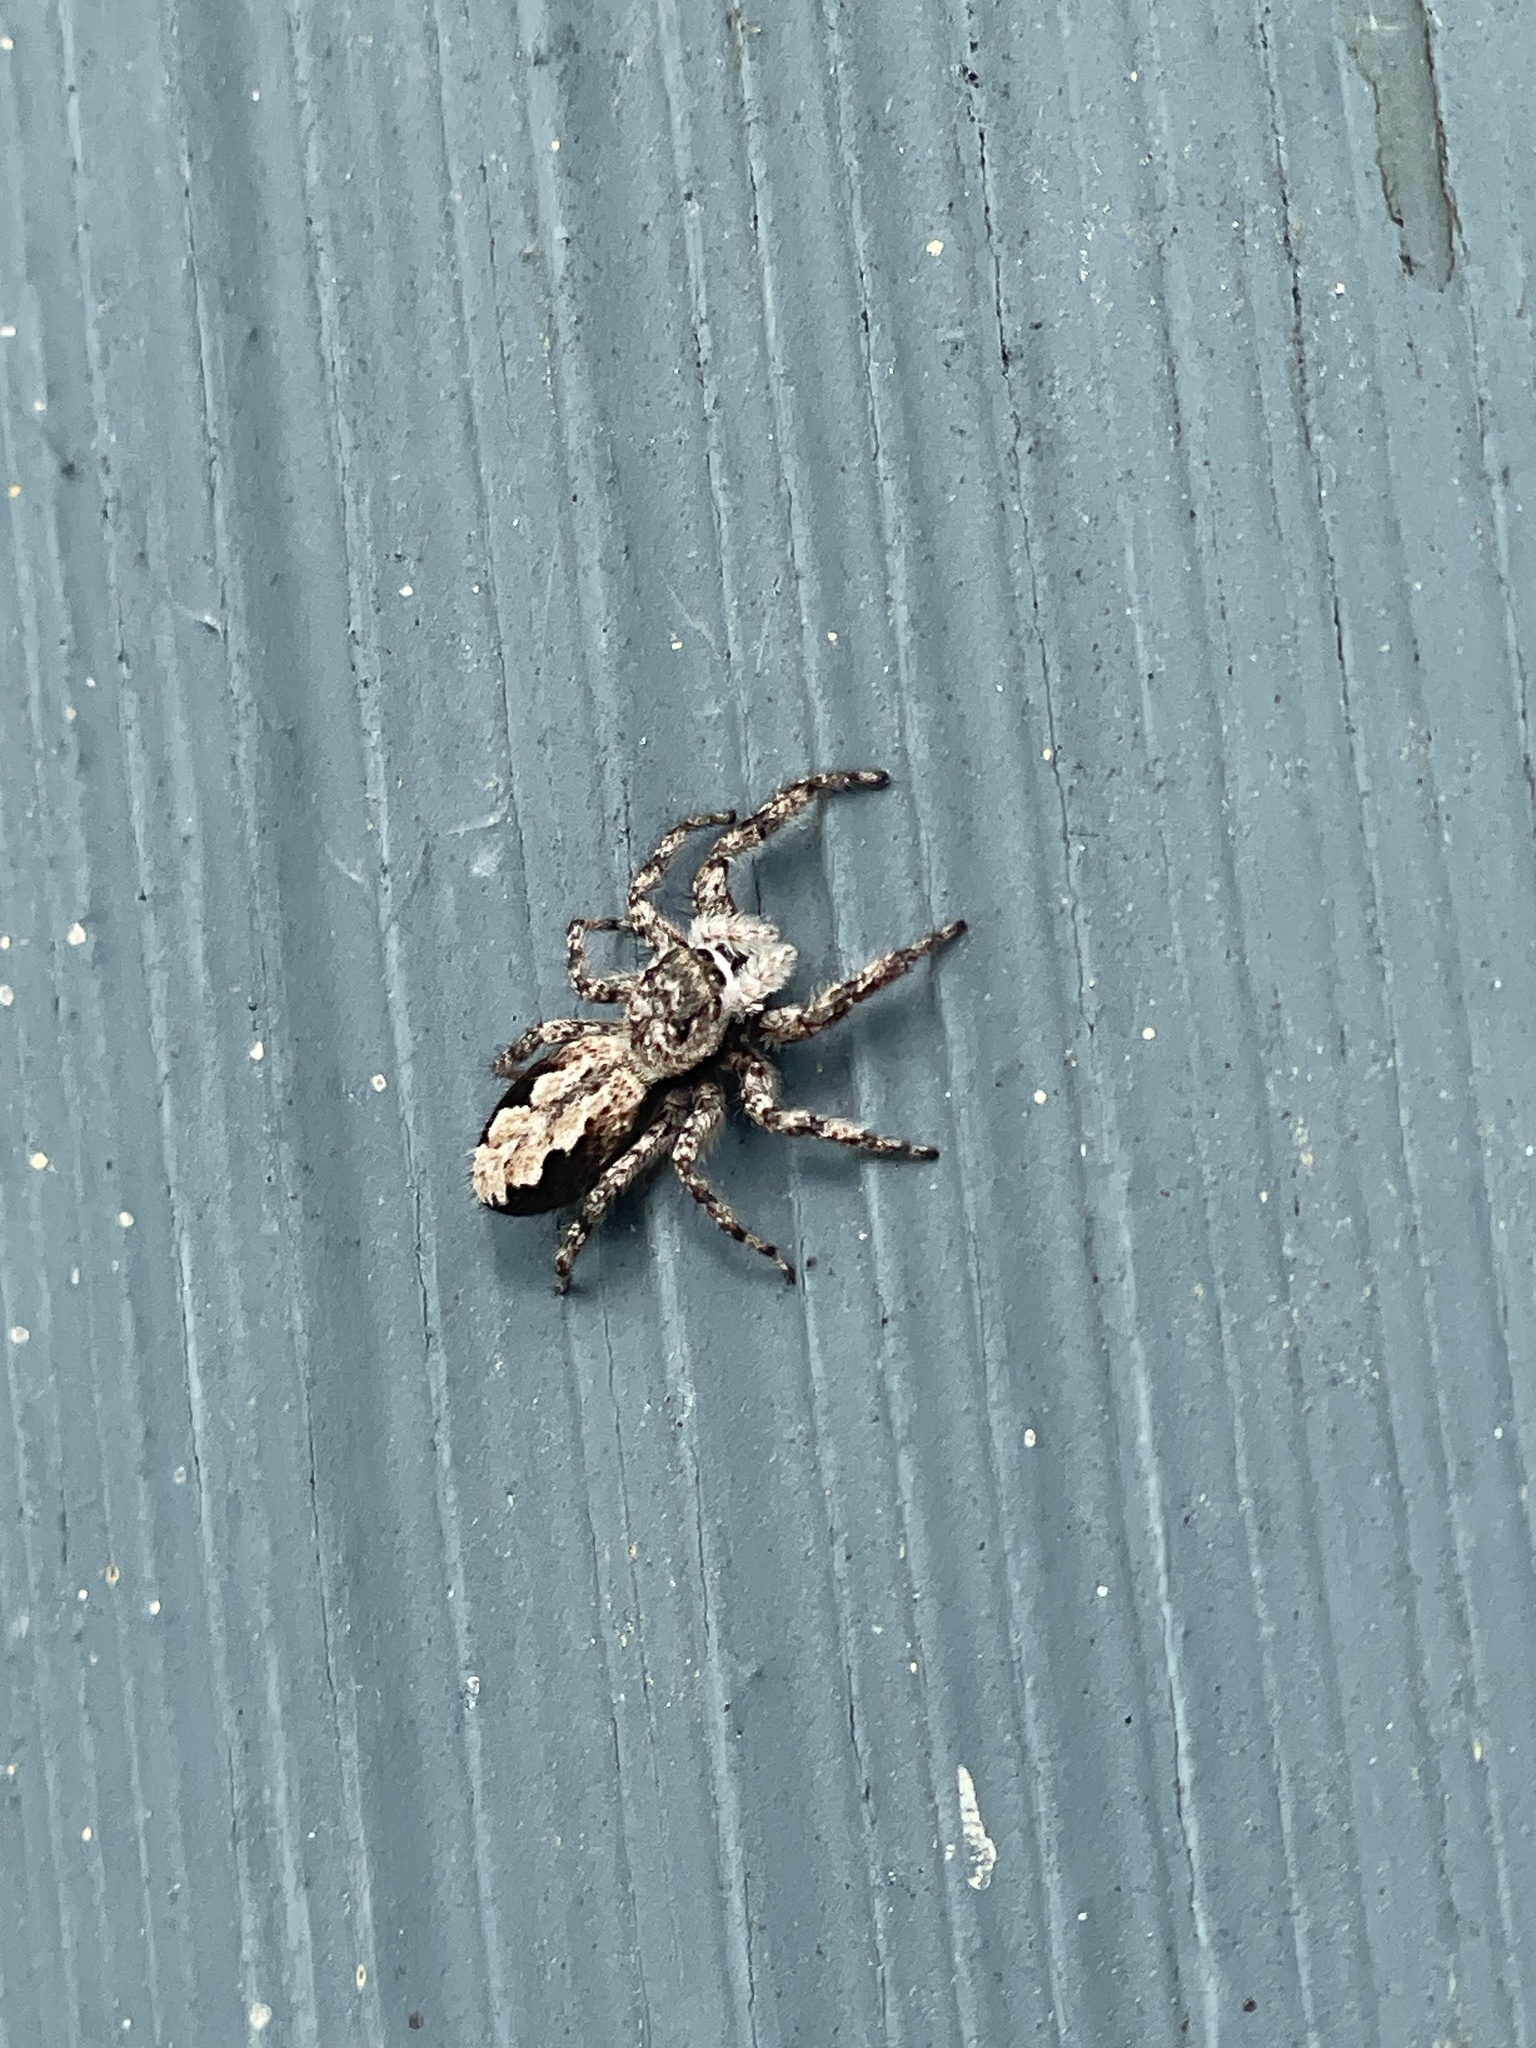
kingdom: Animalia
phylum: Arthropoda
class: Arachnida
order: Araneae
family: Salticidae
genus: Platycryptus
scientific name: Platycryptus undatus
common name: Tan jumping spider
